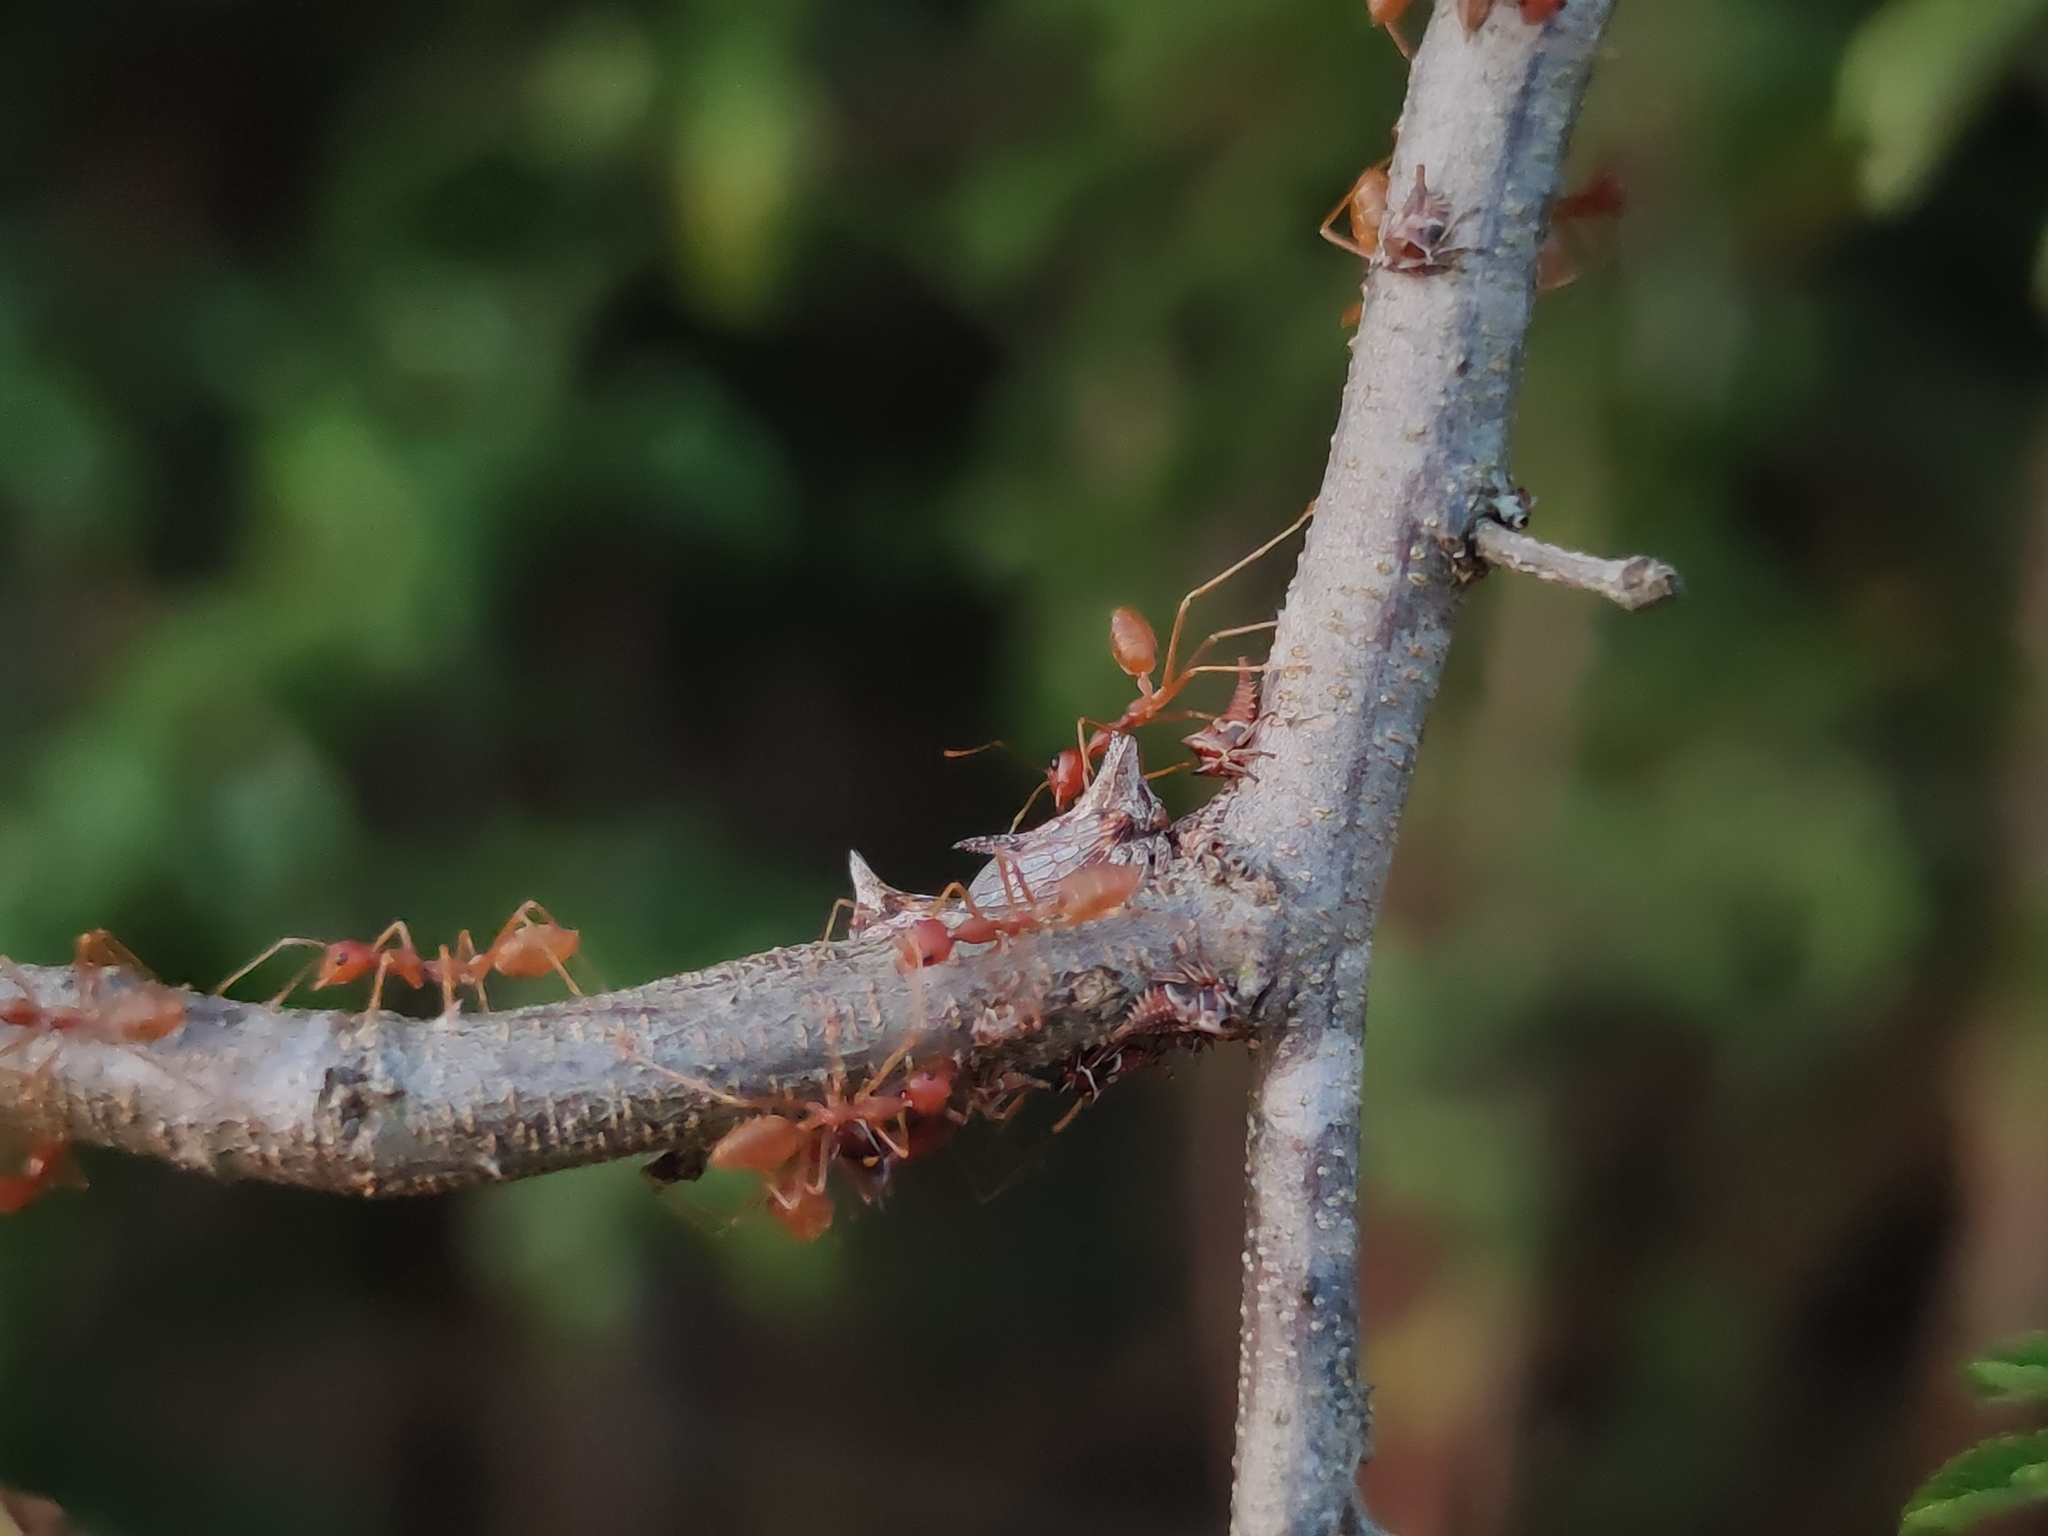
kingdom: Animalia
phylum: Arthropoda
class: Insecta
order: Hymenoptera
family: Formicidae
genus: Oecophylla
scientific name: Oecophylla longinoda
